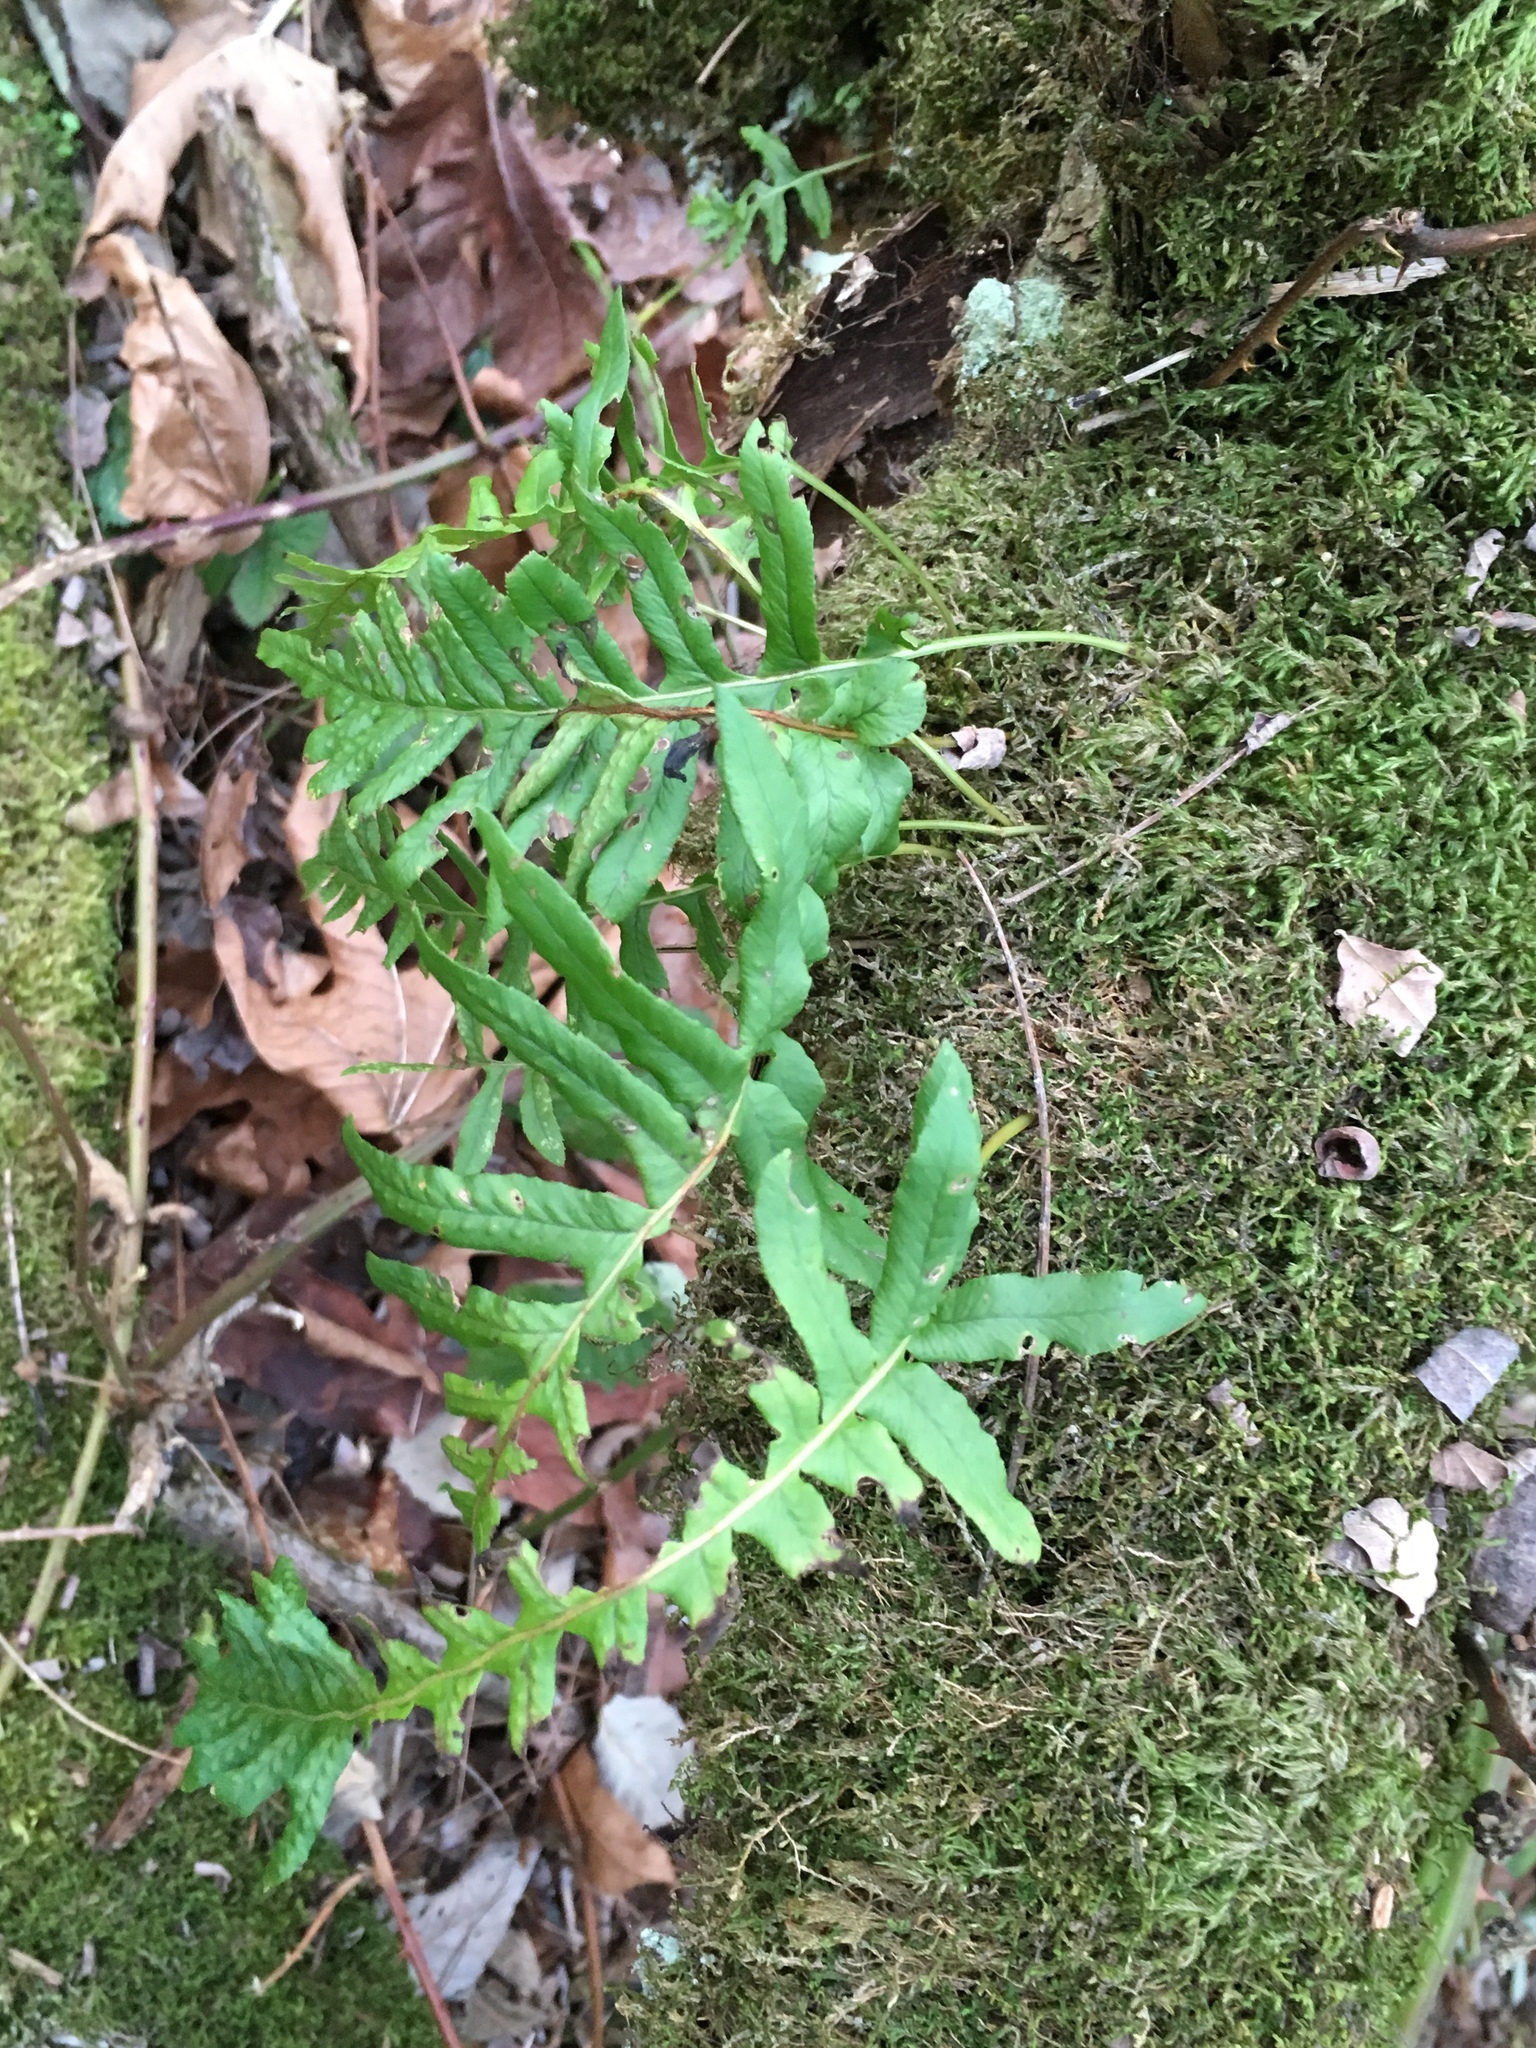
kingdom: Plantae
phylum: Tracheophyta
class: Polypodiopsida
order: Polypodiales
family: Polypodiaceae
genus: Polypodium
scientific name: Polypodium glycyrrhiza
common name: Licorice fern
